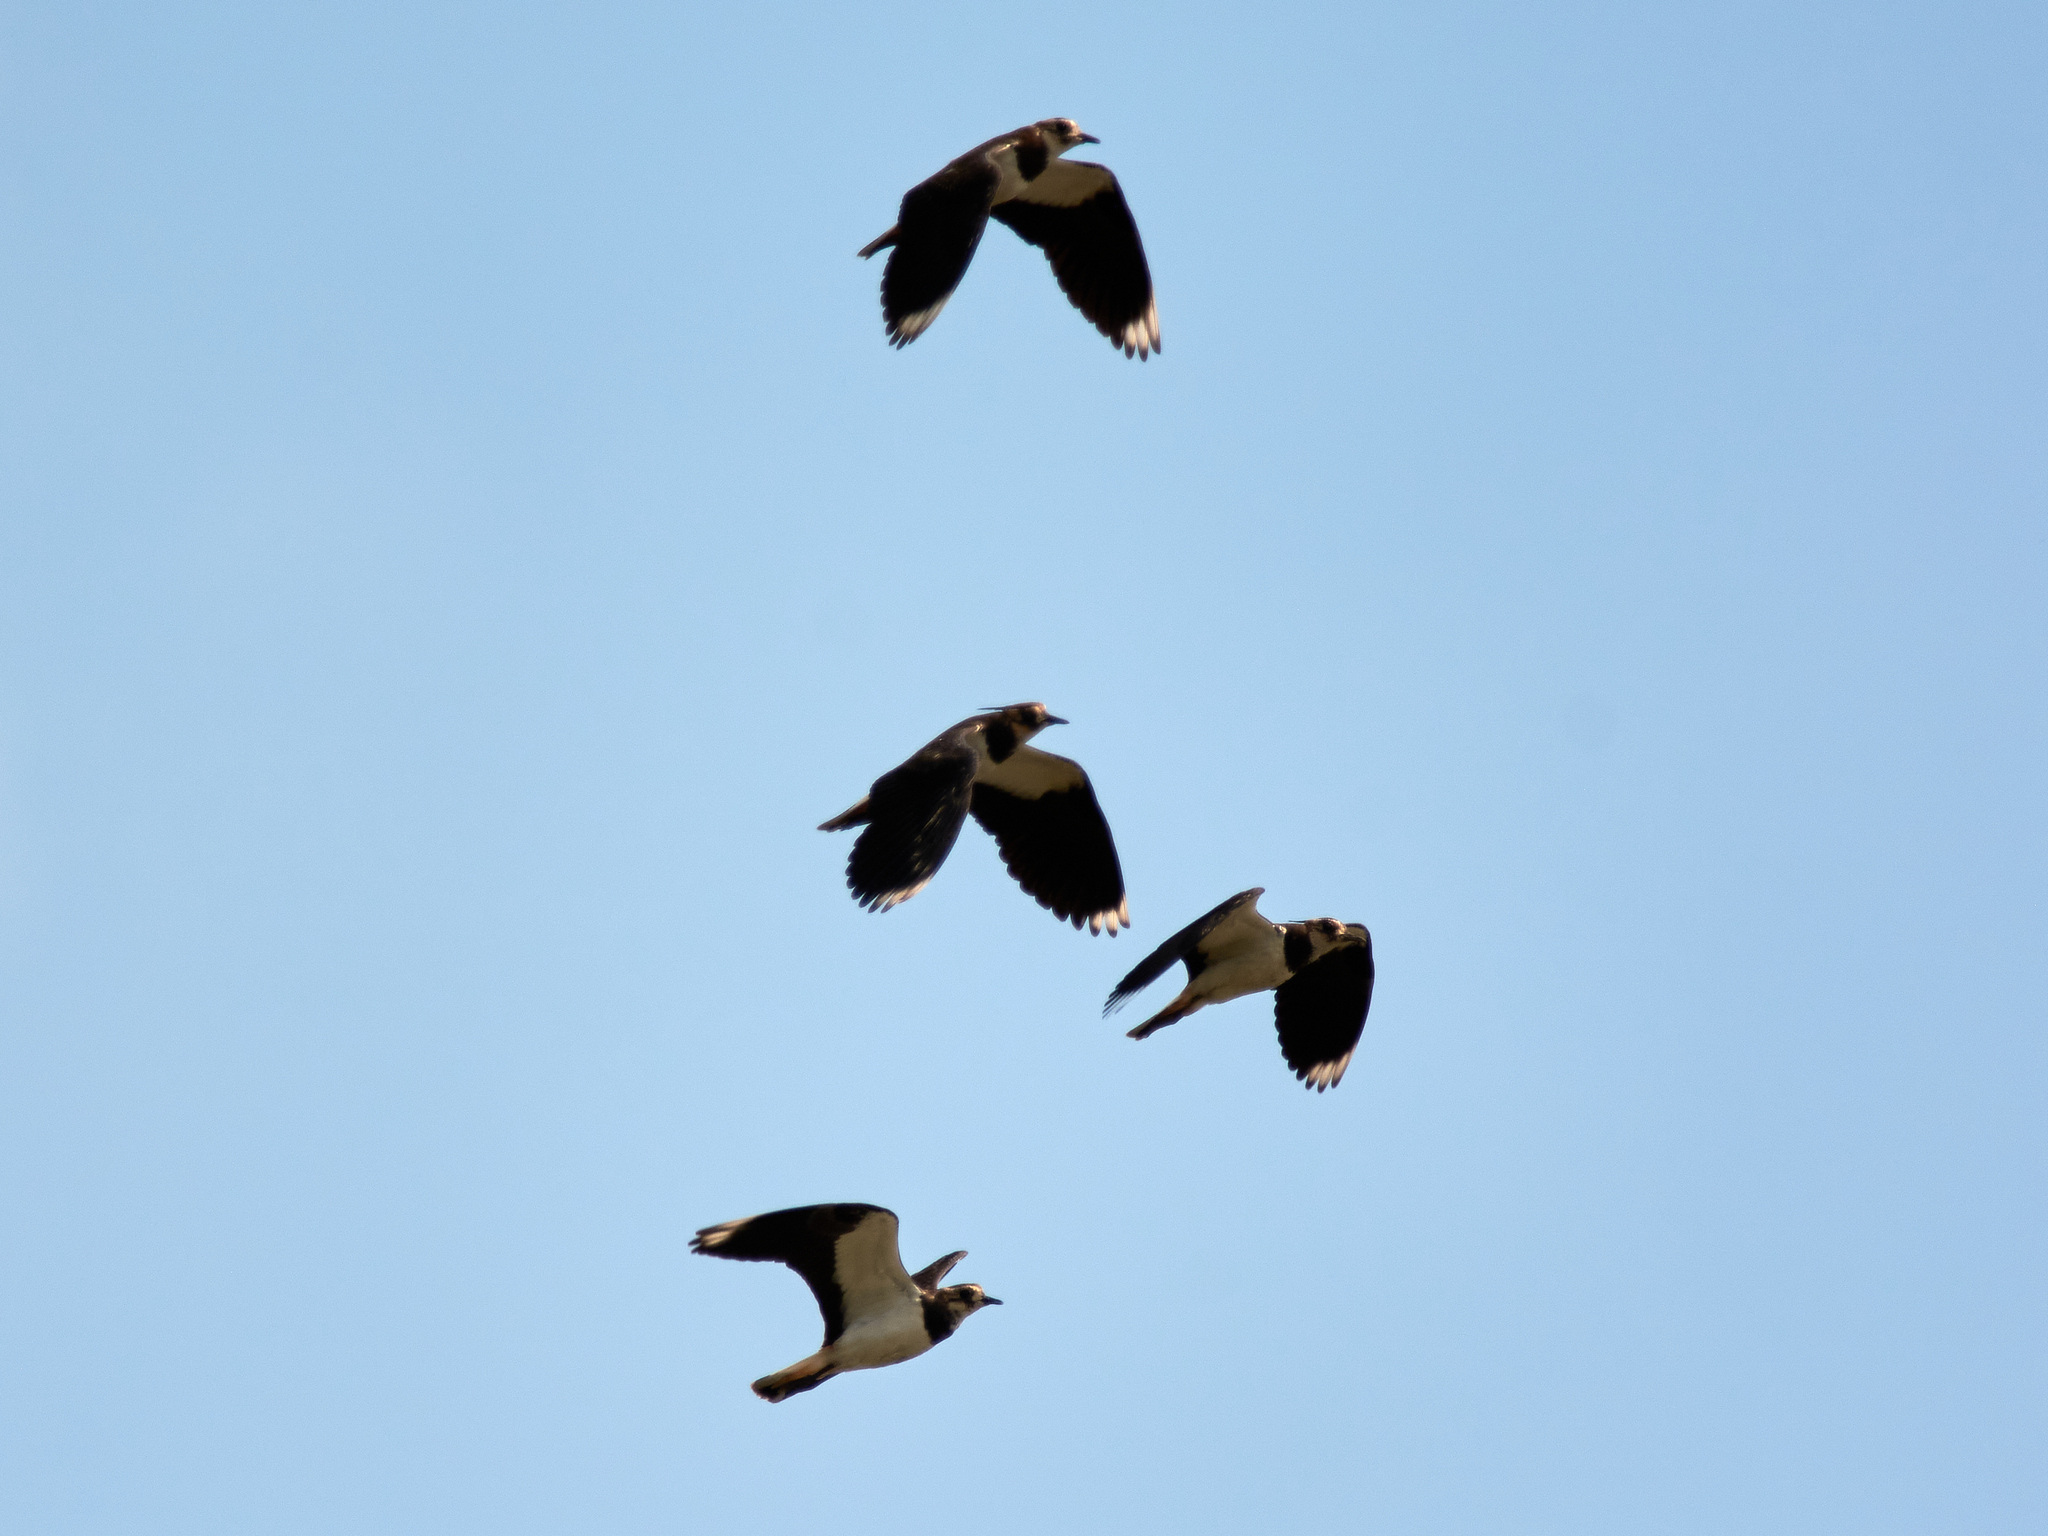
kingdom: Animalia
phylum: Chordata
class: Aves
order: Charadriiformes
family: Charadriidae
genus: Vanellus
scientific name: Vanellus vanellus
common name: Northern lapwing
